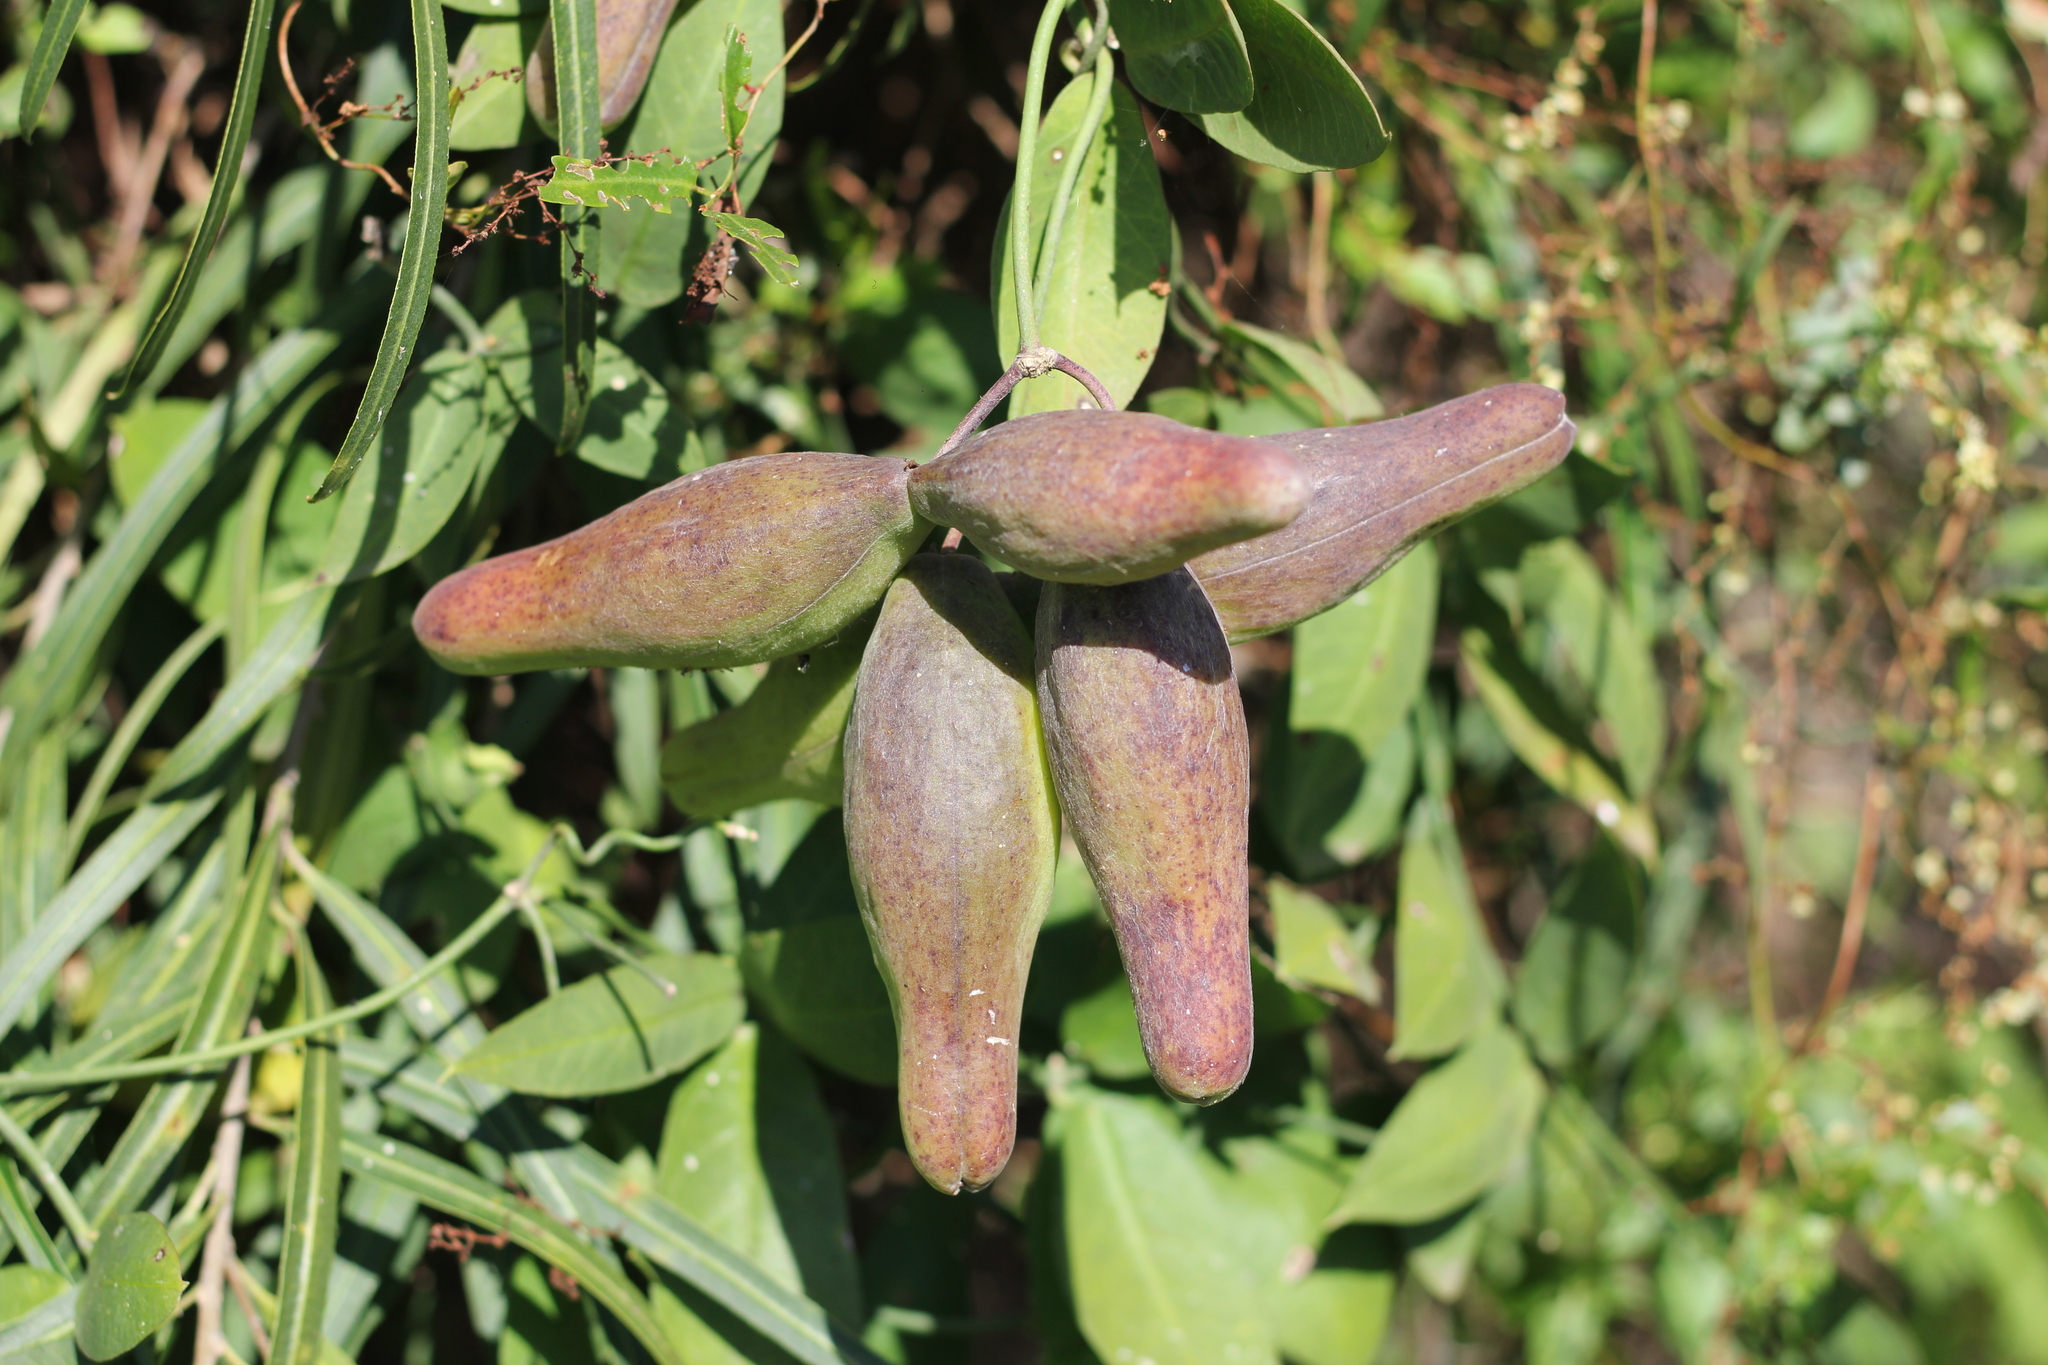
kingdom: Plantae
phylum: Tracheophyta
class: Magnoliopsida
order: Gentianales
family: Apocynaceae
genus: Funastrum
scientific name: Funastrum clausum
